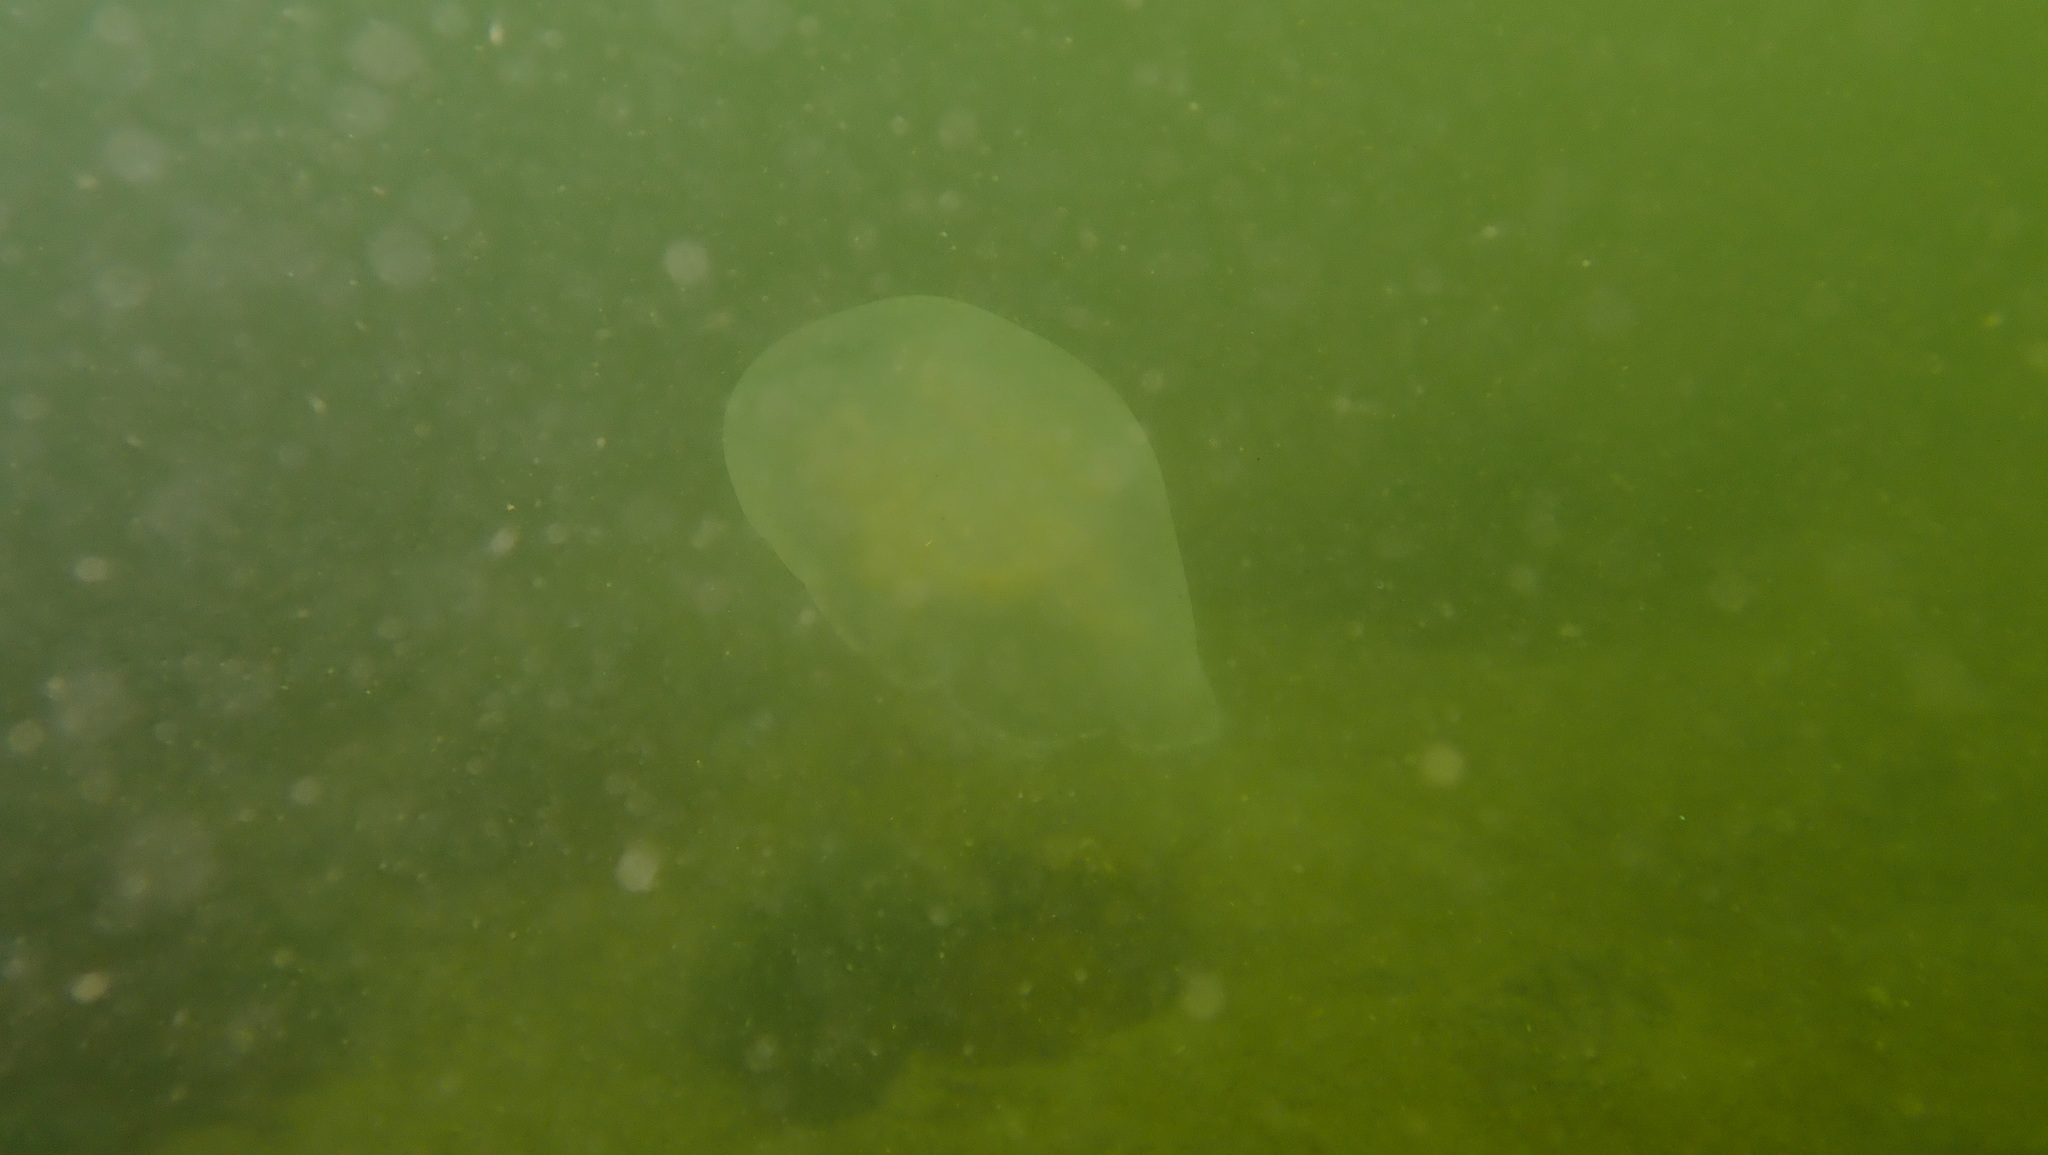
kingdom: Animalia
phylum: Cnidaria
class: Scyphozoa
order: Semaeostomeae
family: Ulmaridae
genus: Aurelia
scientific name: Aurelia aurita
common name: Moon jellyfish
